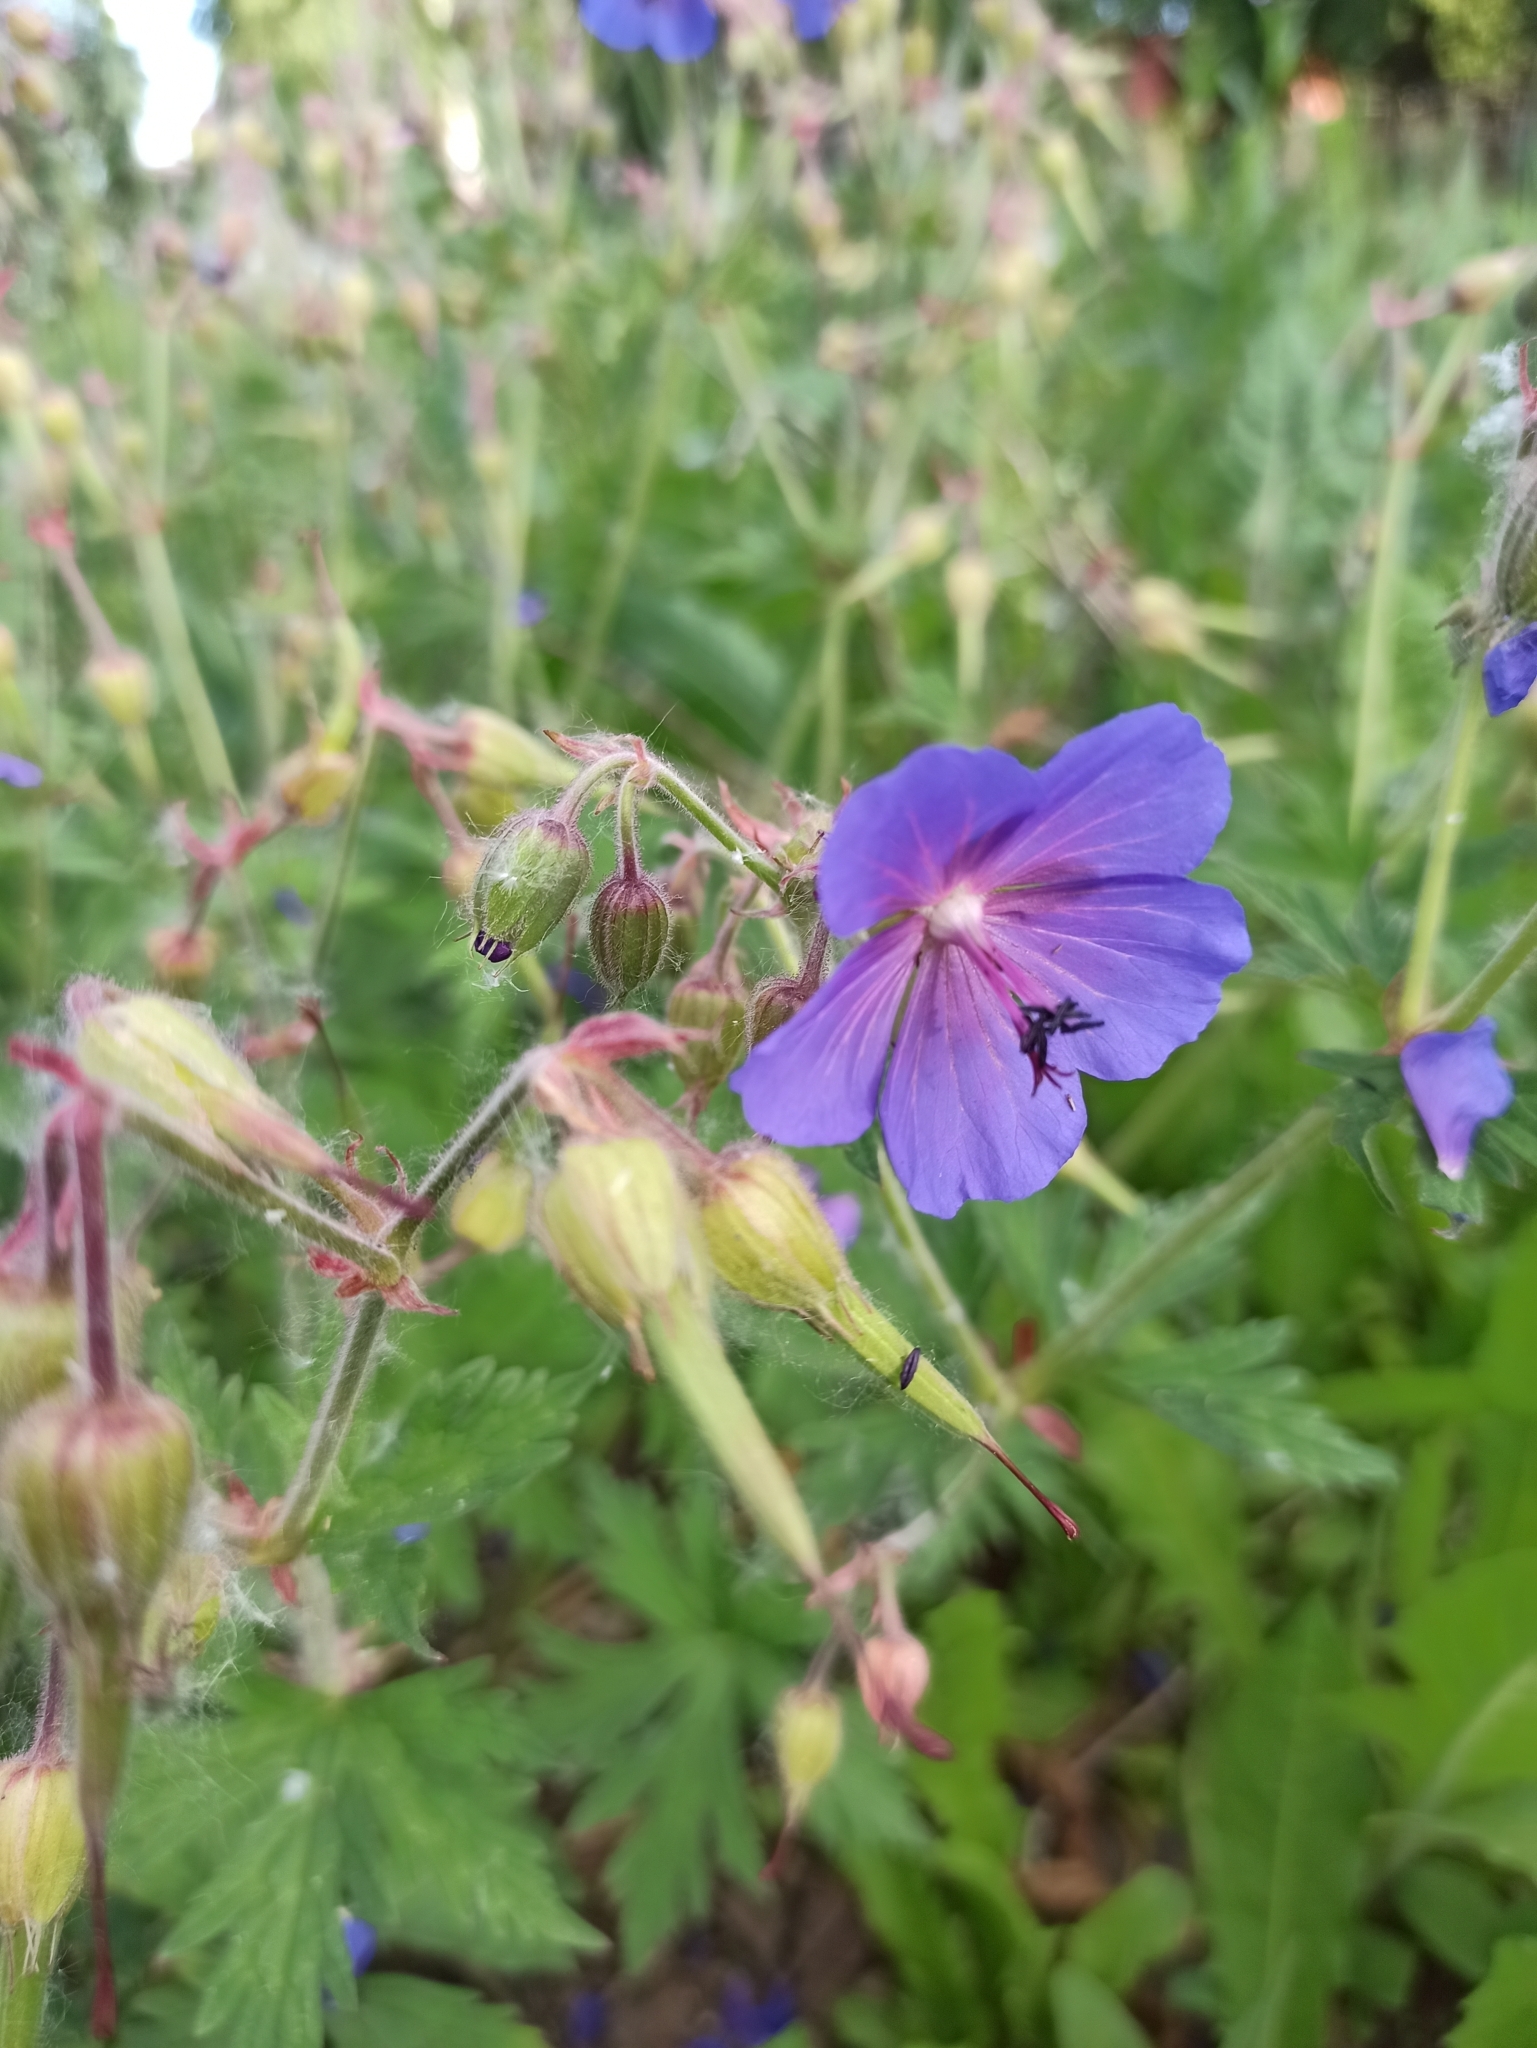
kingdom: Plantae
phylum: Tracheophyta
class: Magnoliopsida
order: Geraniales
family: Geraniaceae
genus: Geranium
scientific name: Geranium pratense
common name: Meadow crane's-bill
